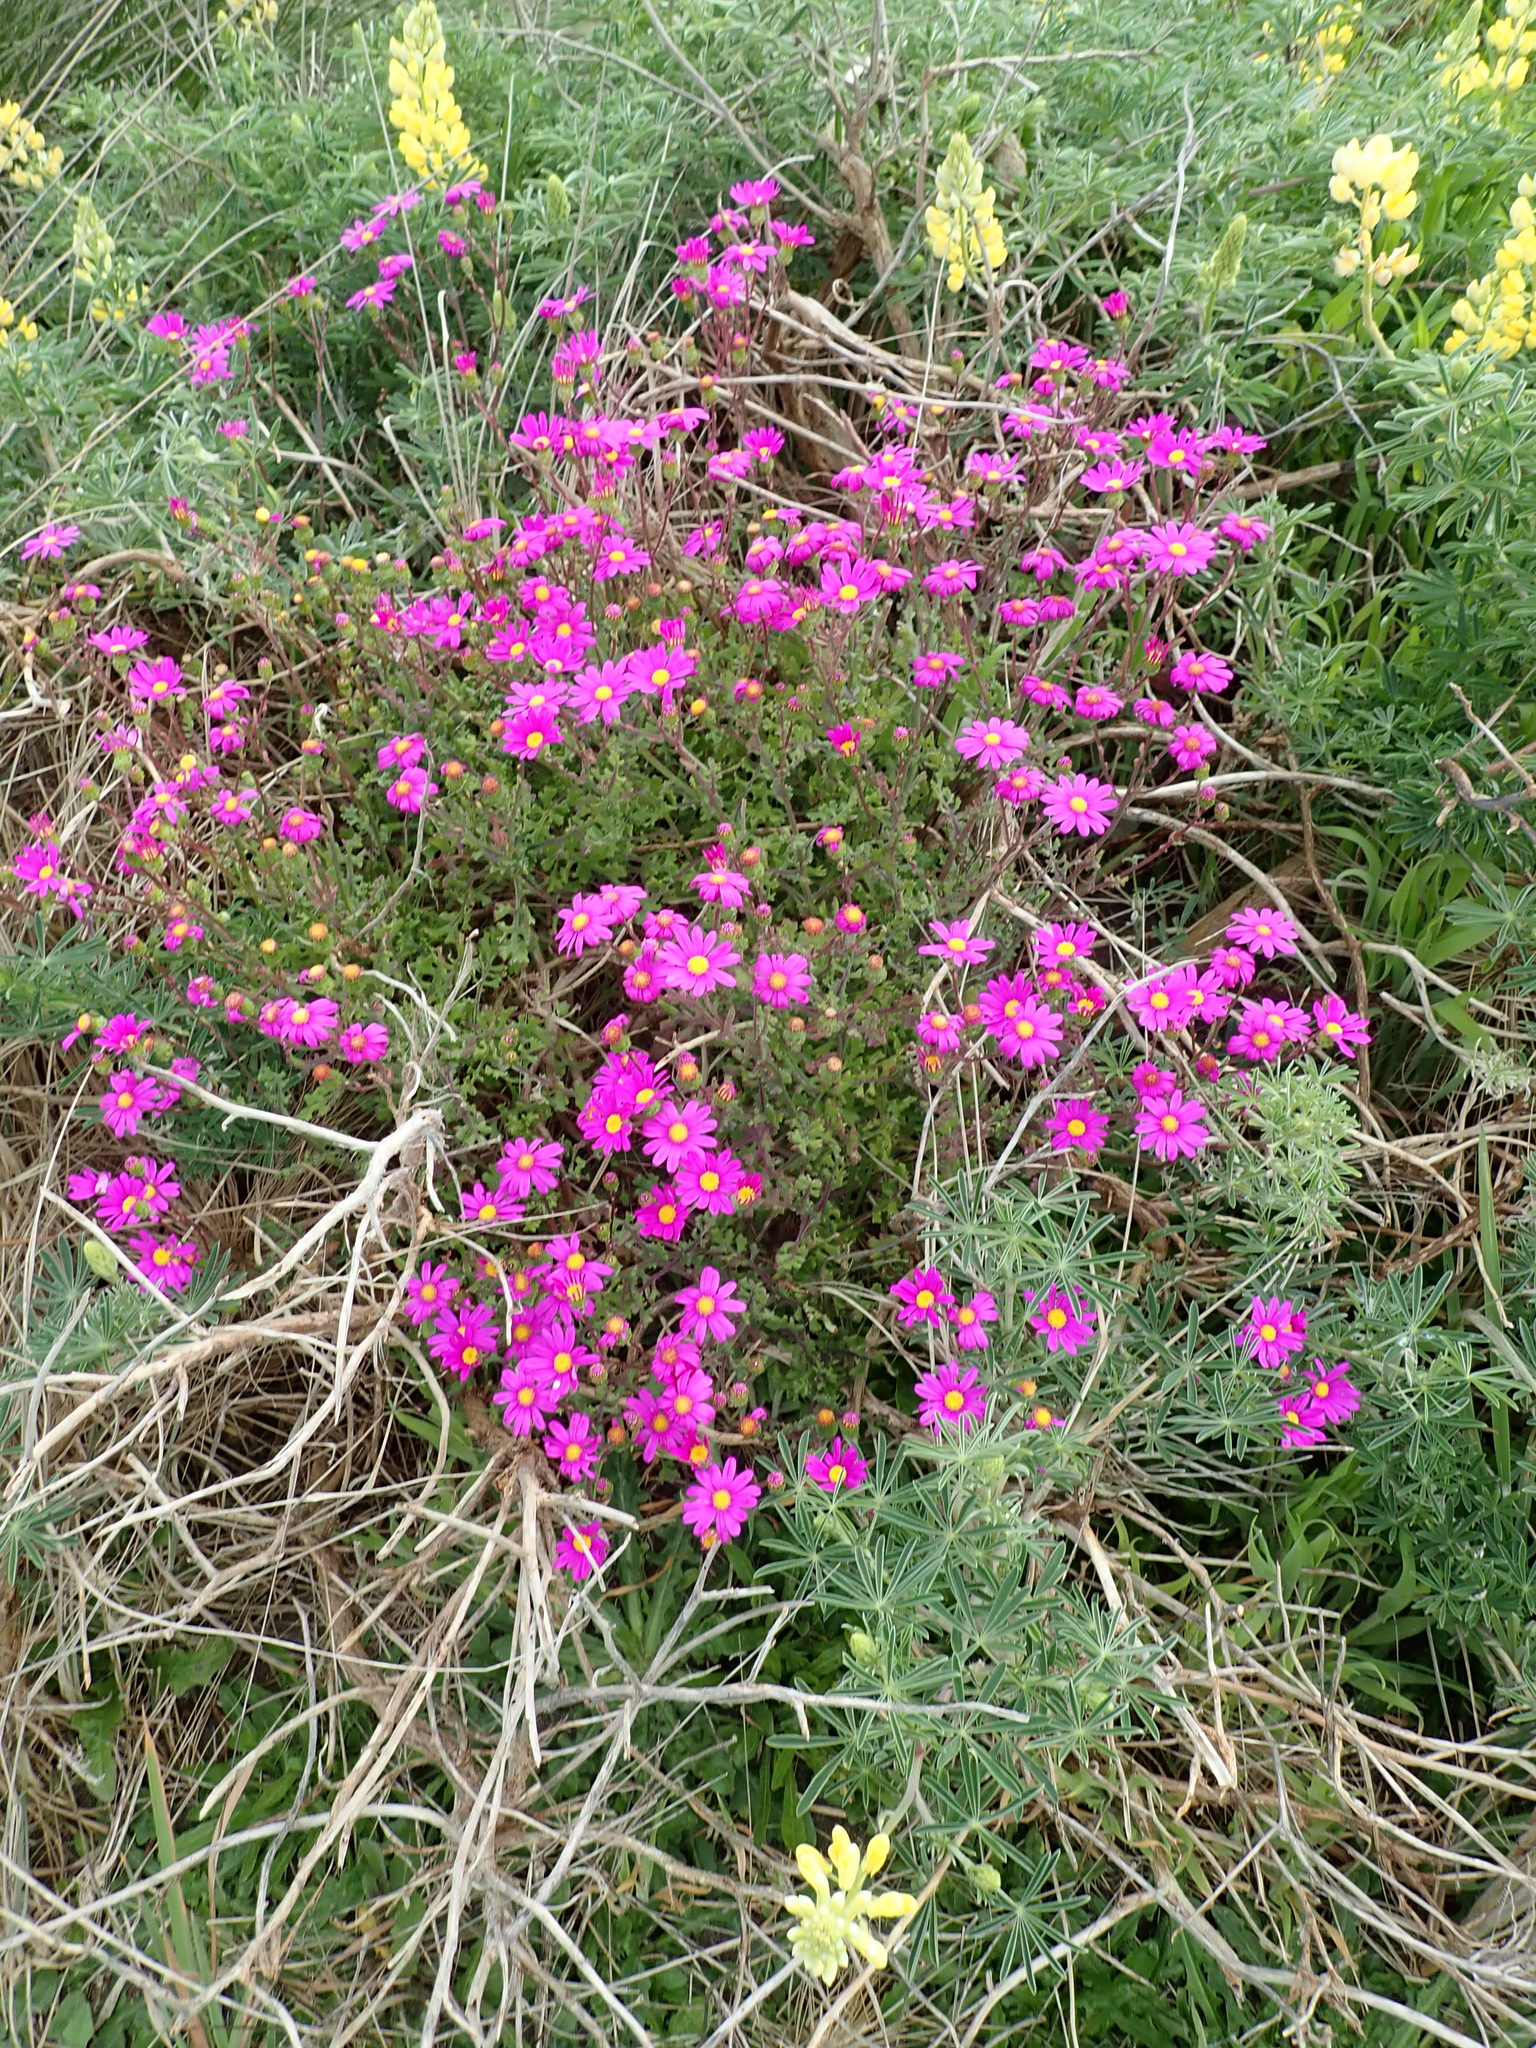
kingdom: Plantae
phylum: Tracheophyta
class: Magnoliopsida
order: Asterales
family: Asteraceae
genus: Senecio
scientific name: Senecio elegans
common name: Purple groundsel
